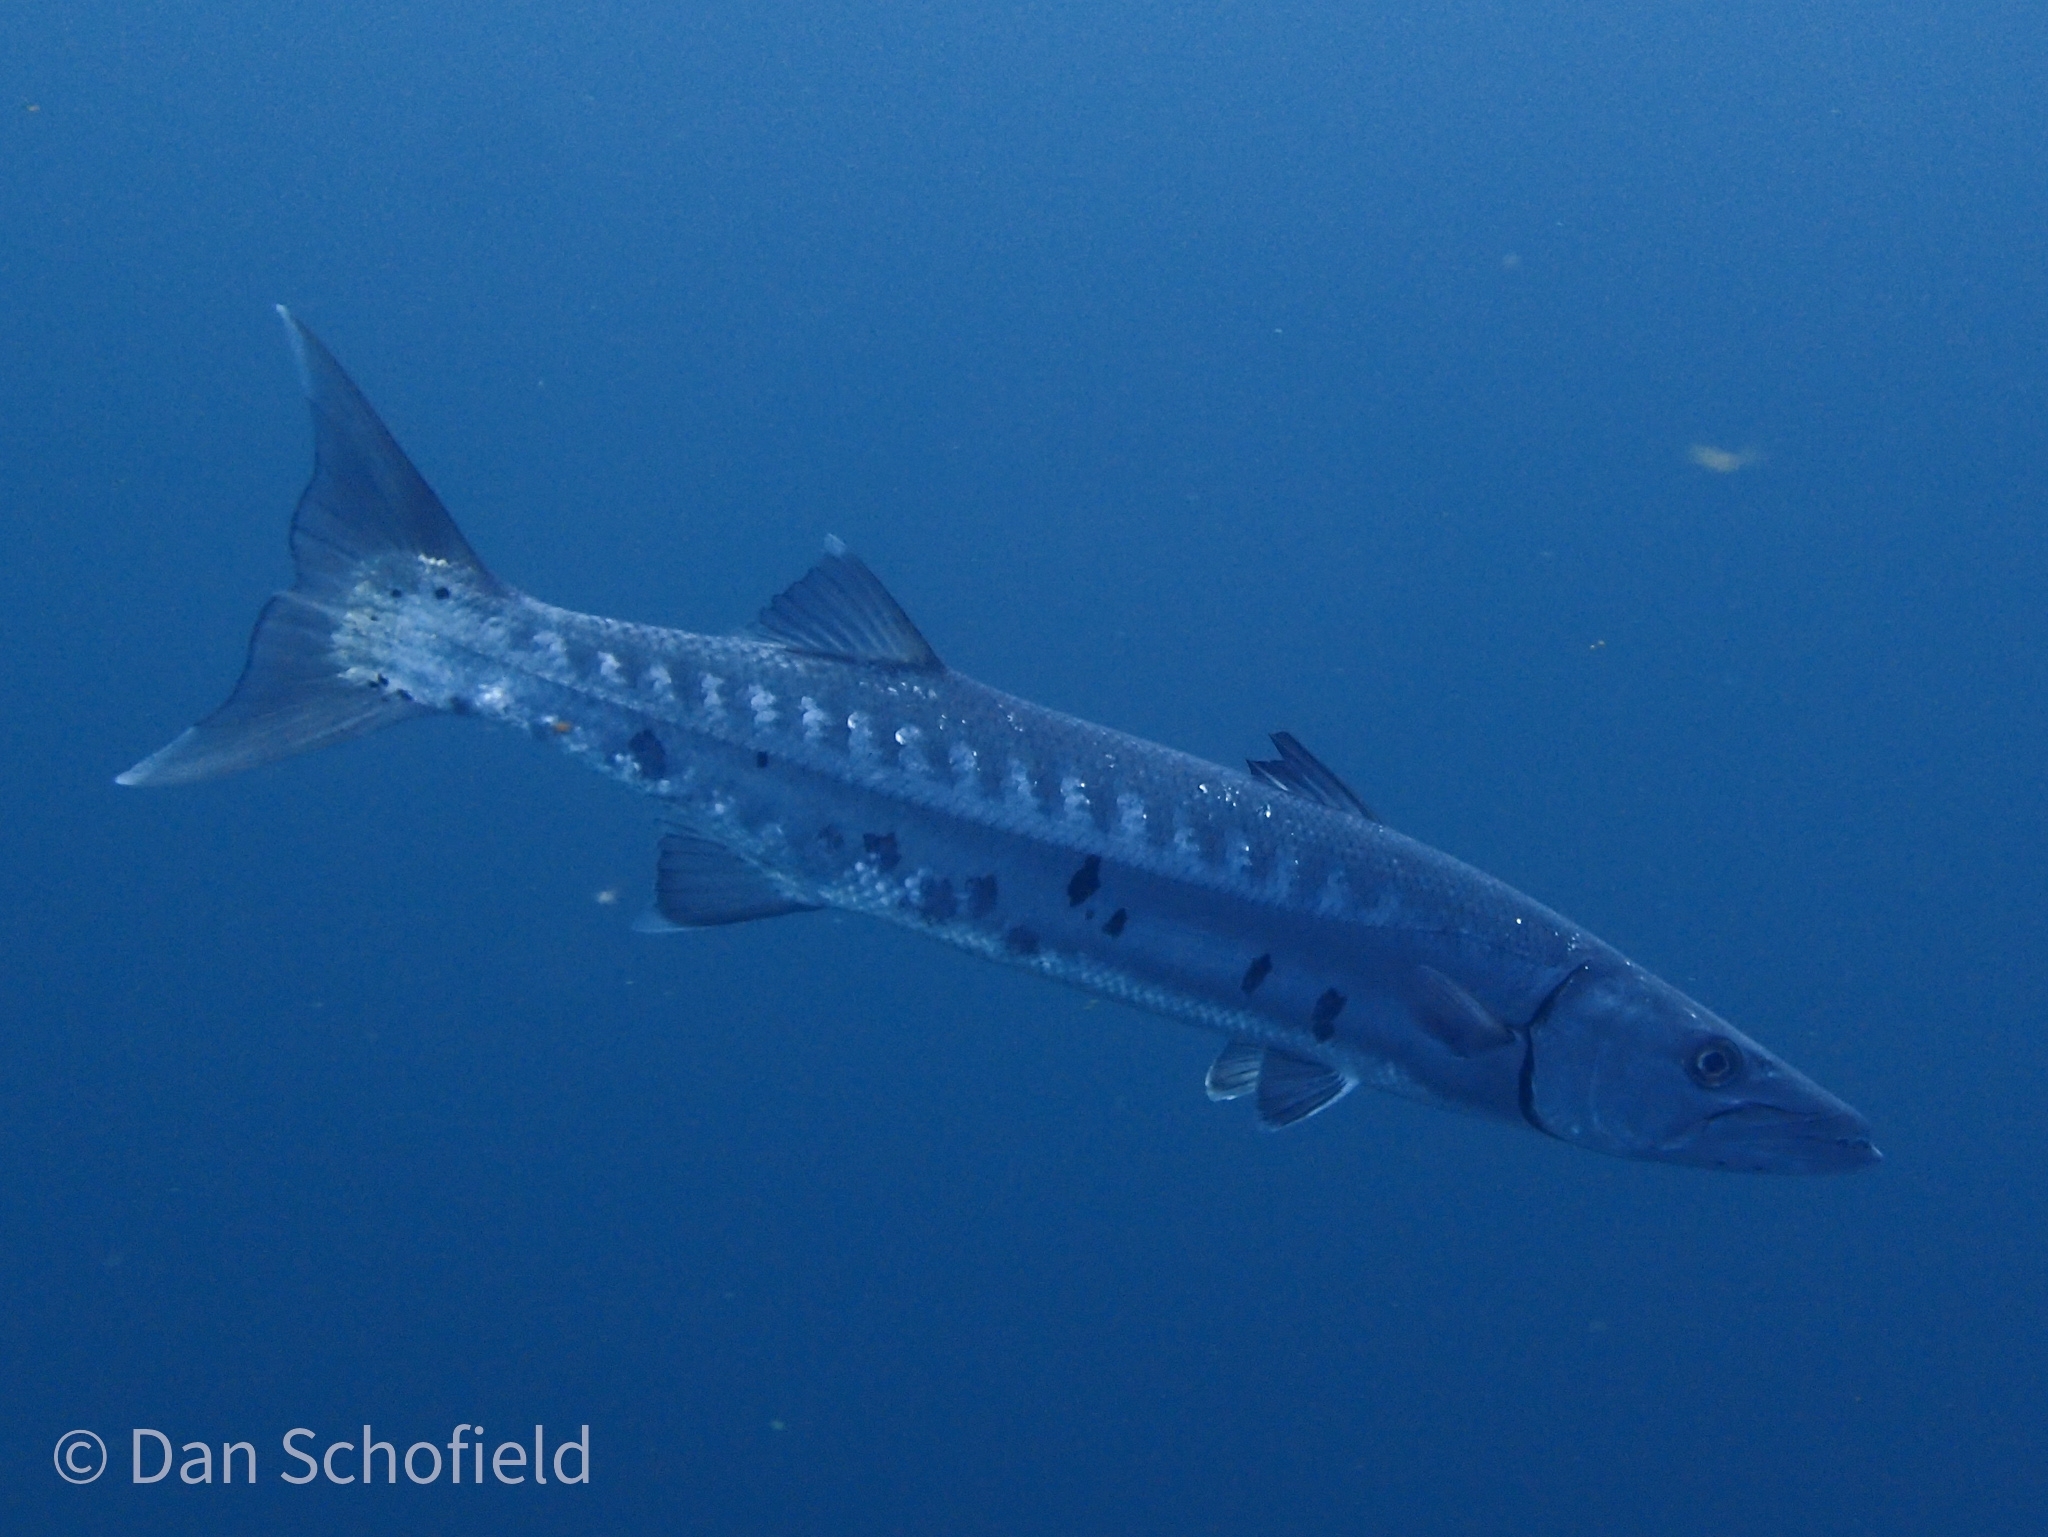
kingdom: Animalia
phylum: Chordata
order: Perciformes
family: Sphyraenidae
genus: Sphyraena
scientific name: Sphyraena barracuda
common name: Great barracuda
